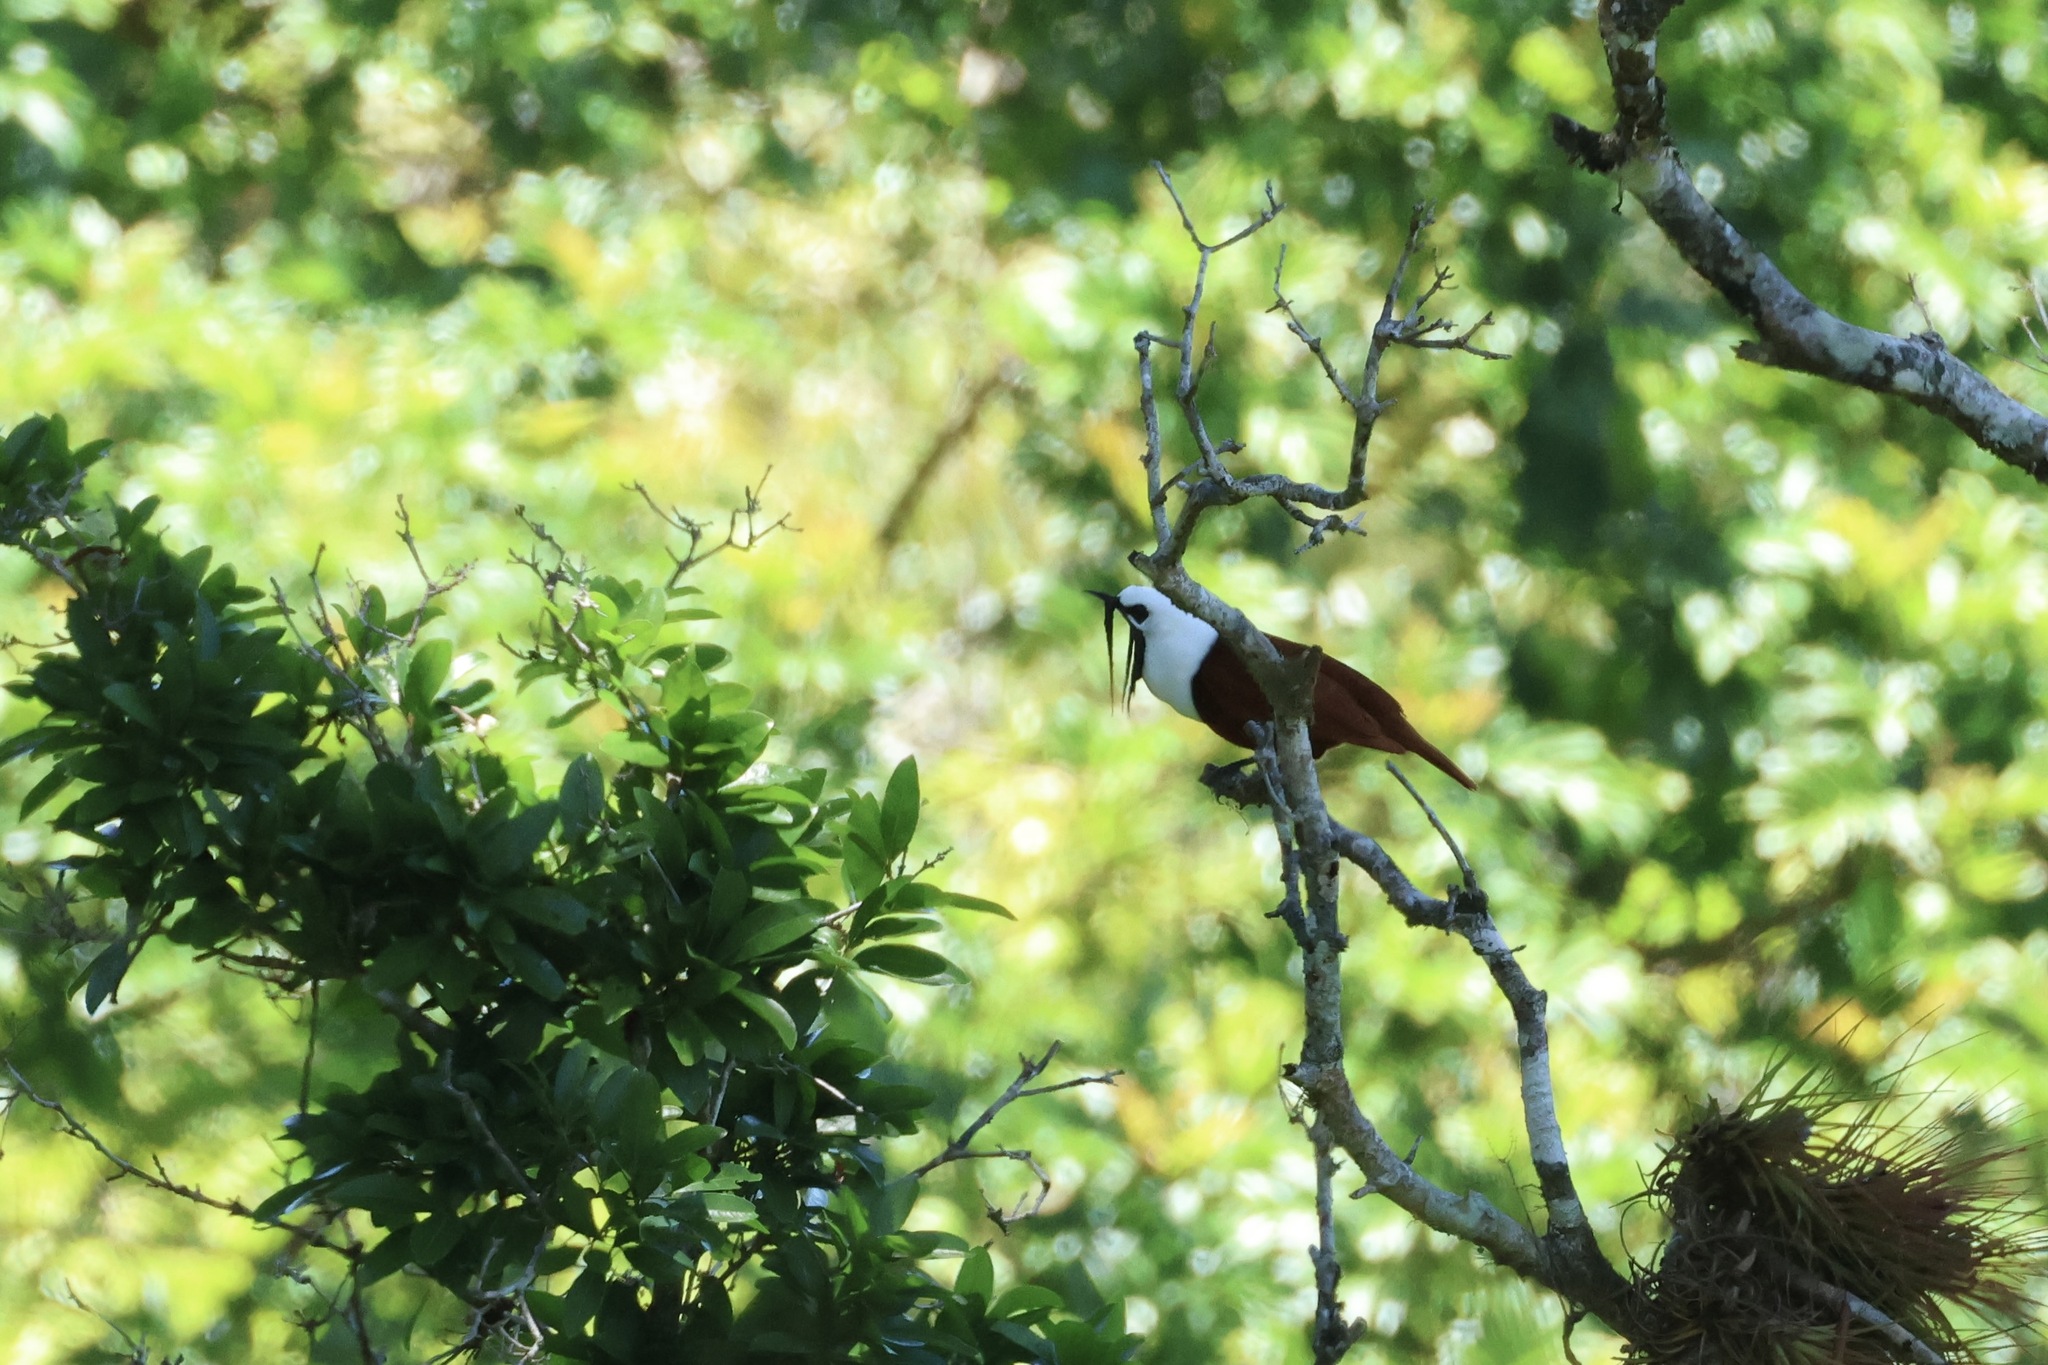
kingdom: Animalia
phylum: Chordata
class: Aves
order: Passeriformes
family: Cotingidae
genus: Procnias
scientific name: Procnias tricarunculatus
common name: Three-wattled bellbird
